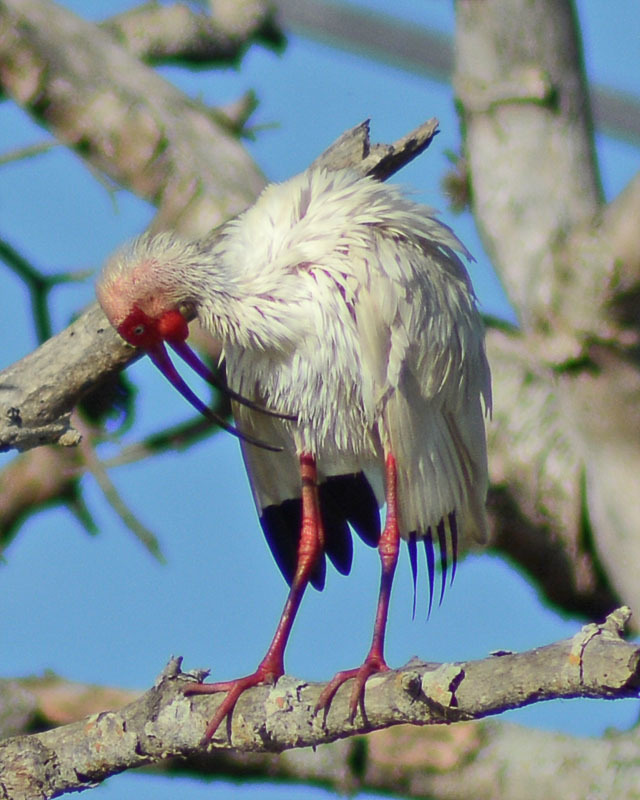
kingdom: Animalia
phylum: Chordata
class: Aves
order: Pelecaniformes
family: Threskiornithidae
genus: Eudocimus
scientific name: Eudocimus albus
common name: White ibis
